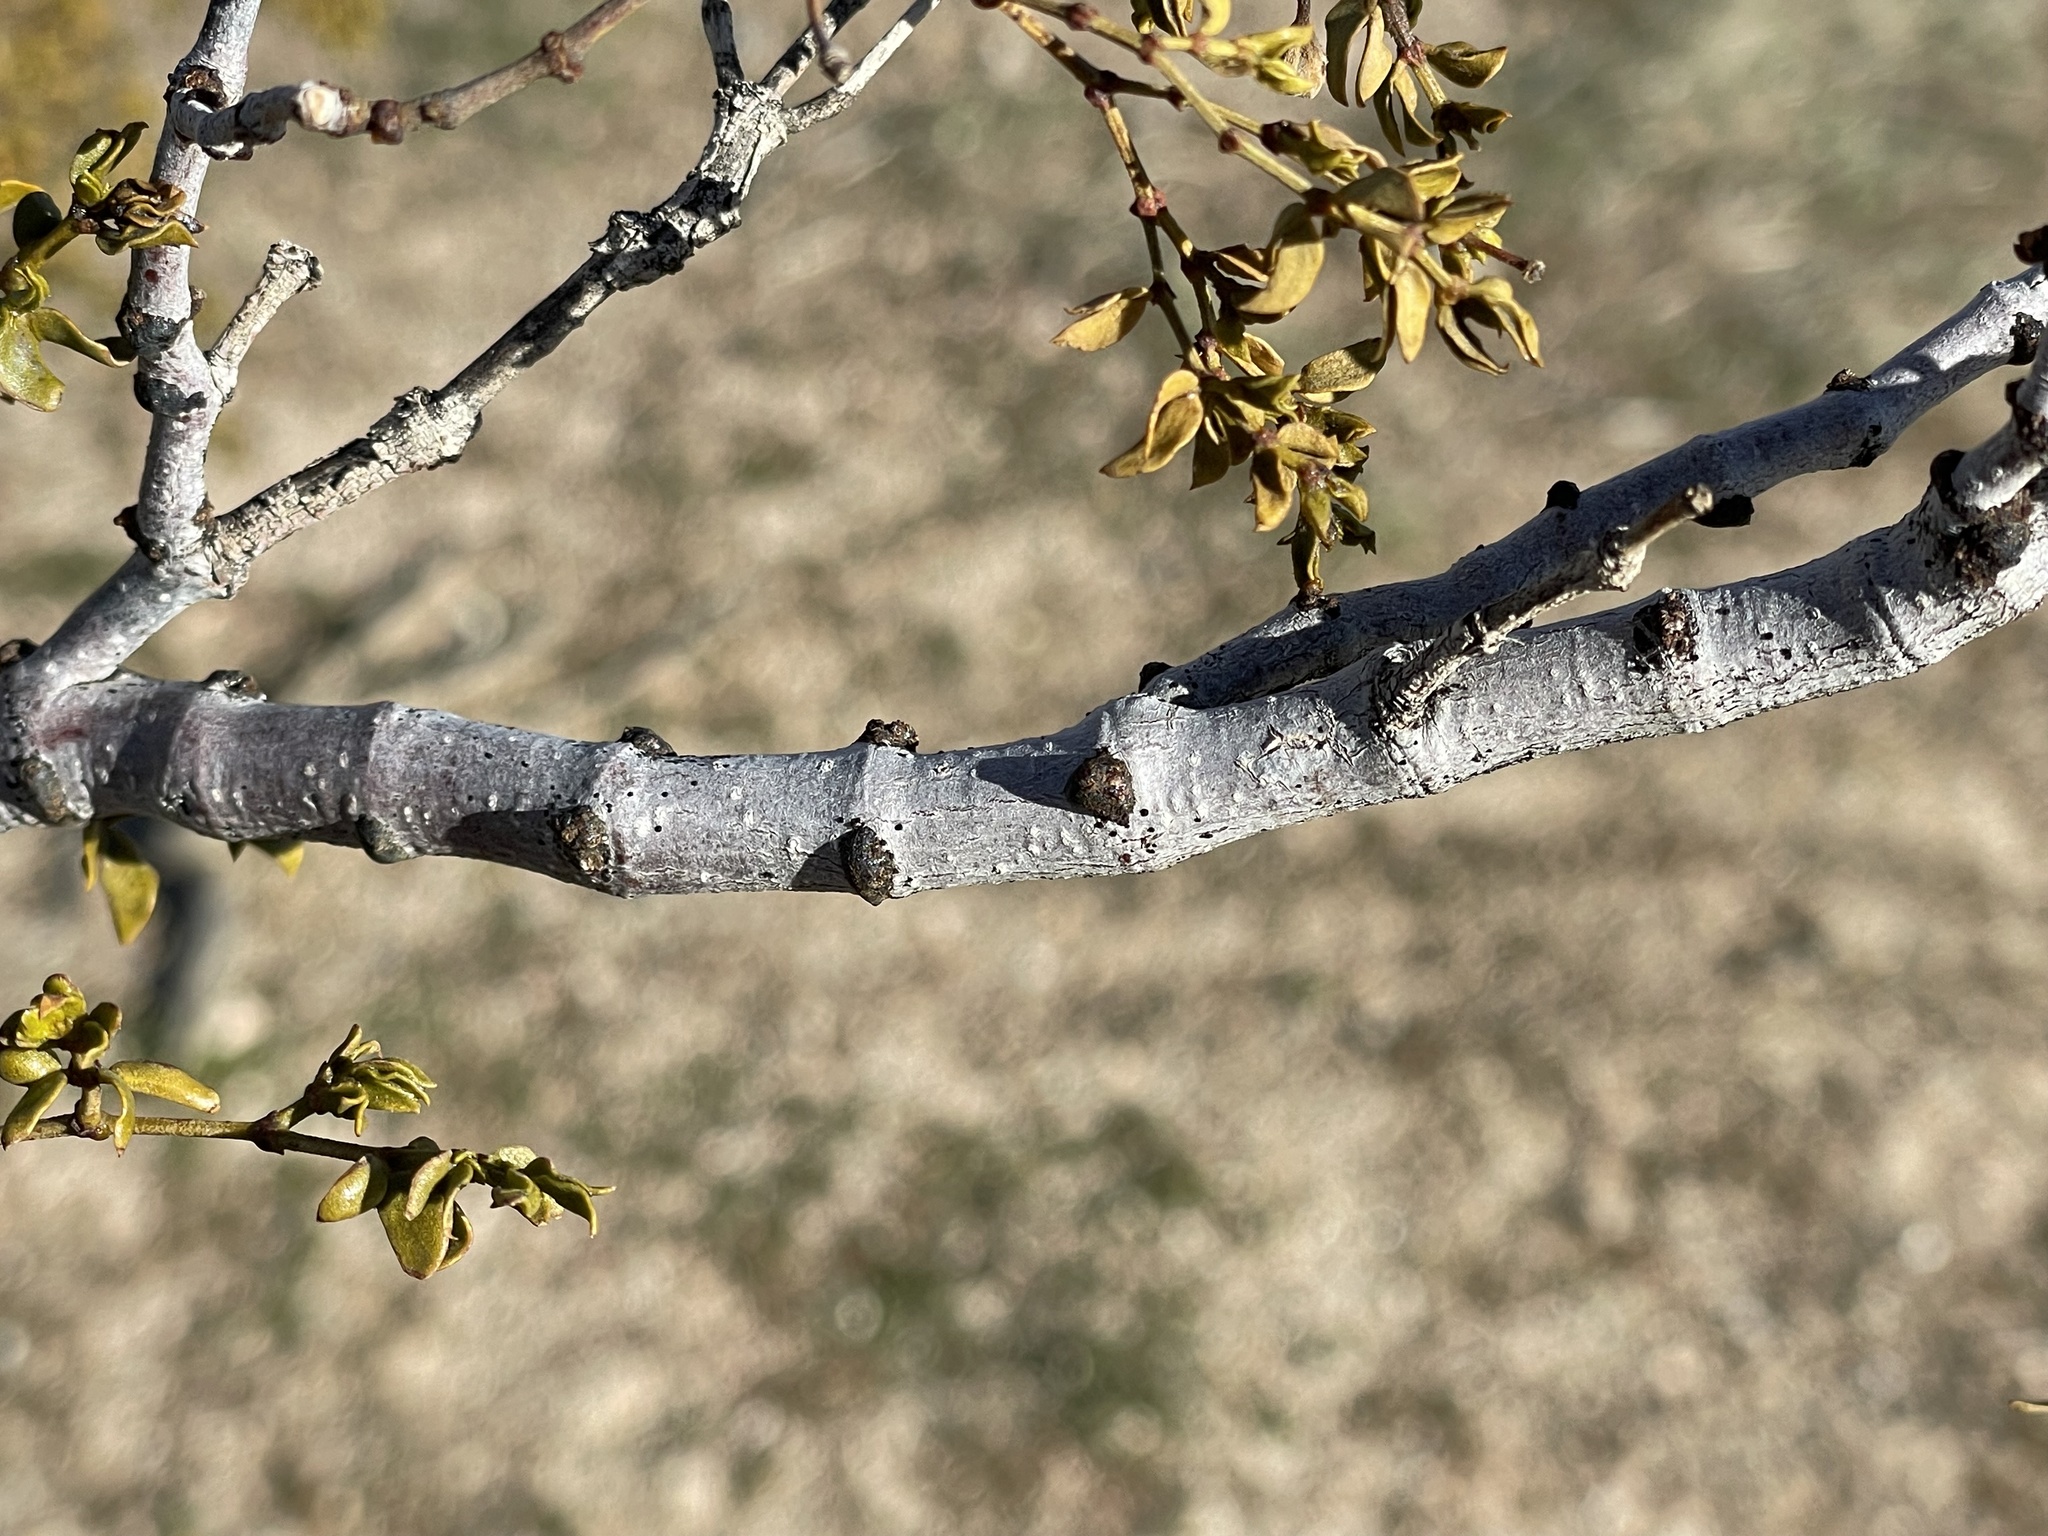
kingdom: Plantae
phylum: Tracheophyta
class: Magnoliopsida
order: Zygophyllales
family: Zygophyllaceae
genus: Larrea
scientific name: Larrea tridentata
